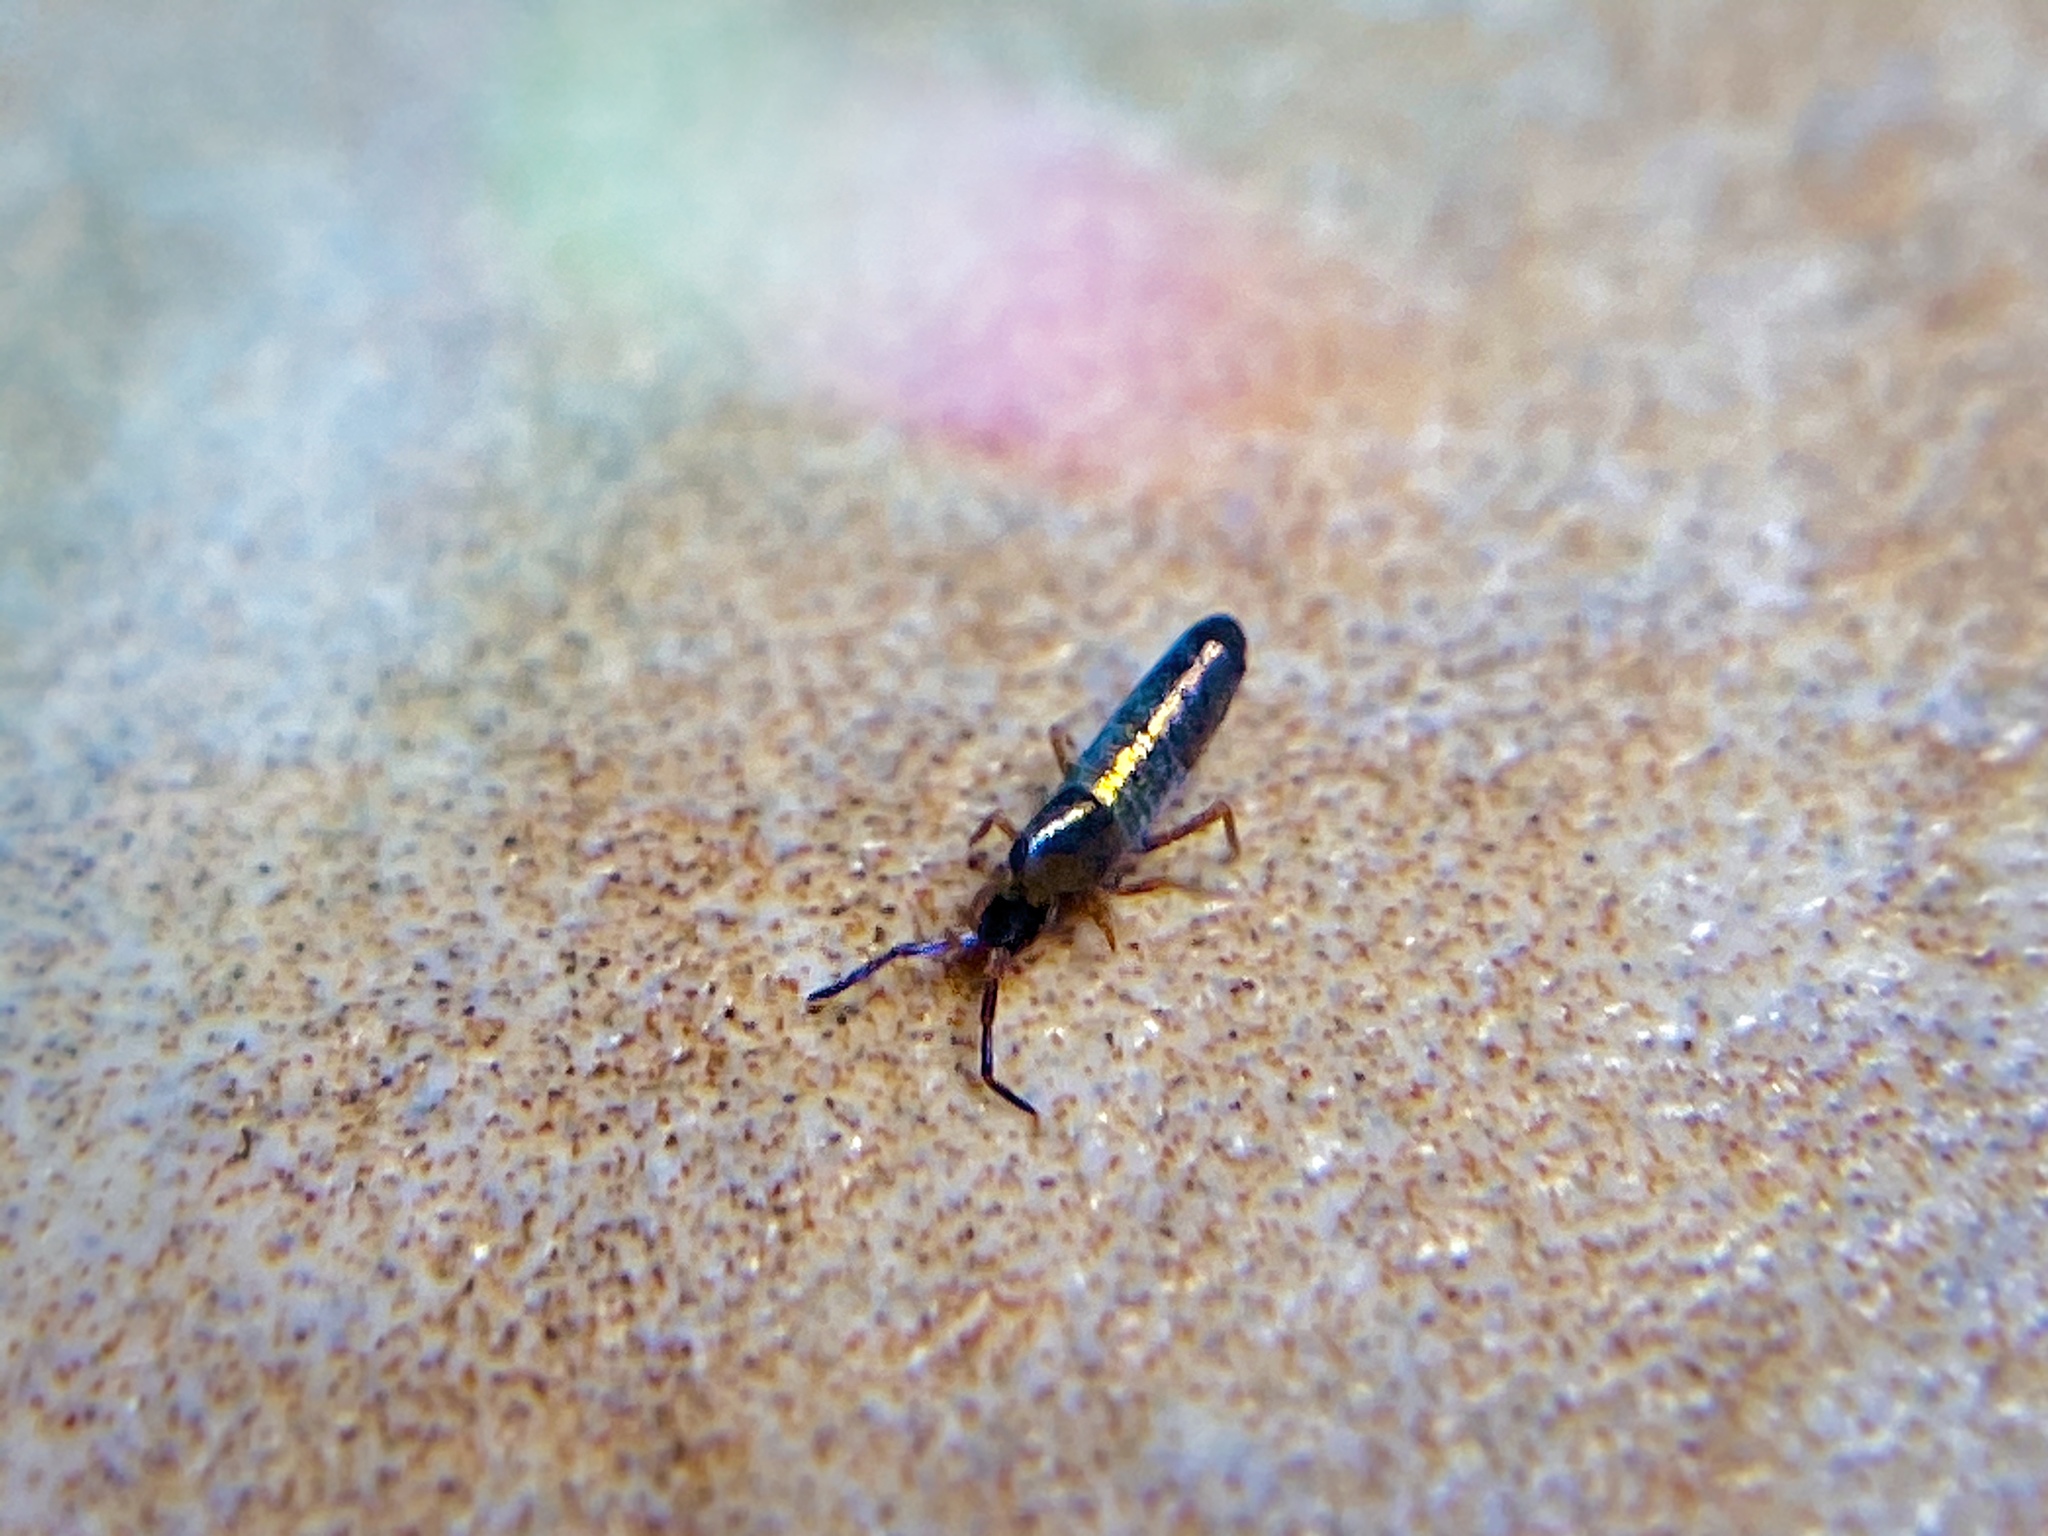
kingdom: Animalia
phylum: Arthropoda
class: Collembola
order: Entomobryomorpha
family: Entomobryidae
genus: Lepidocyrtus
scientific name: Lepidocyrtus paradoxus
